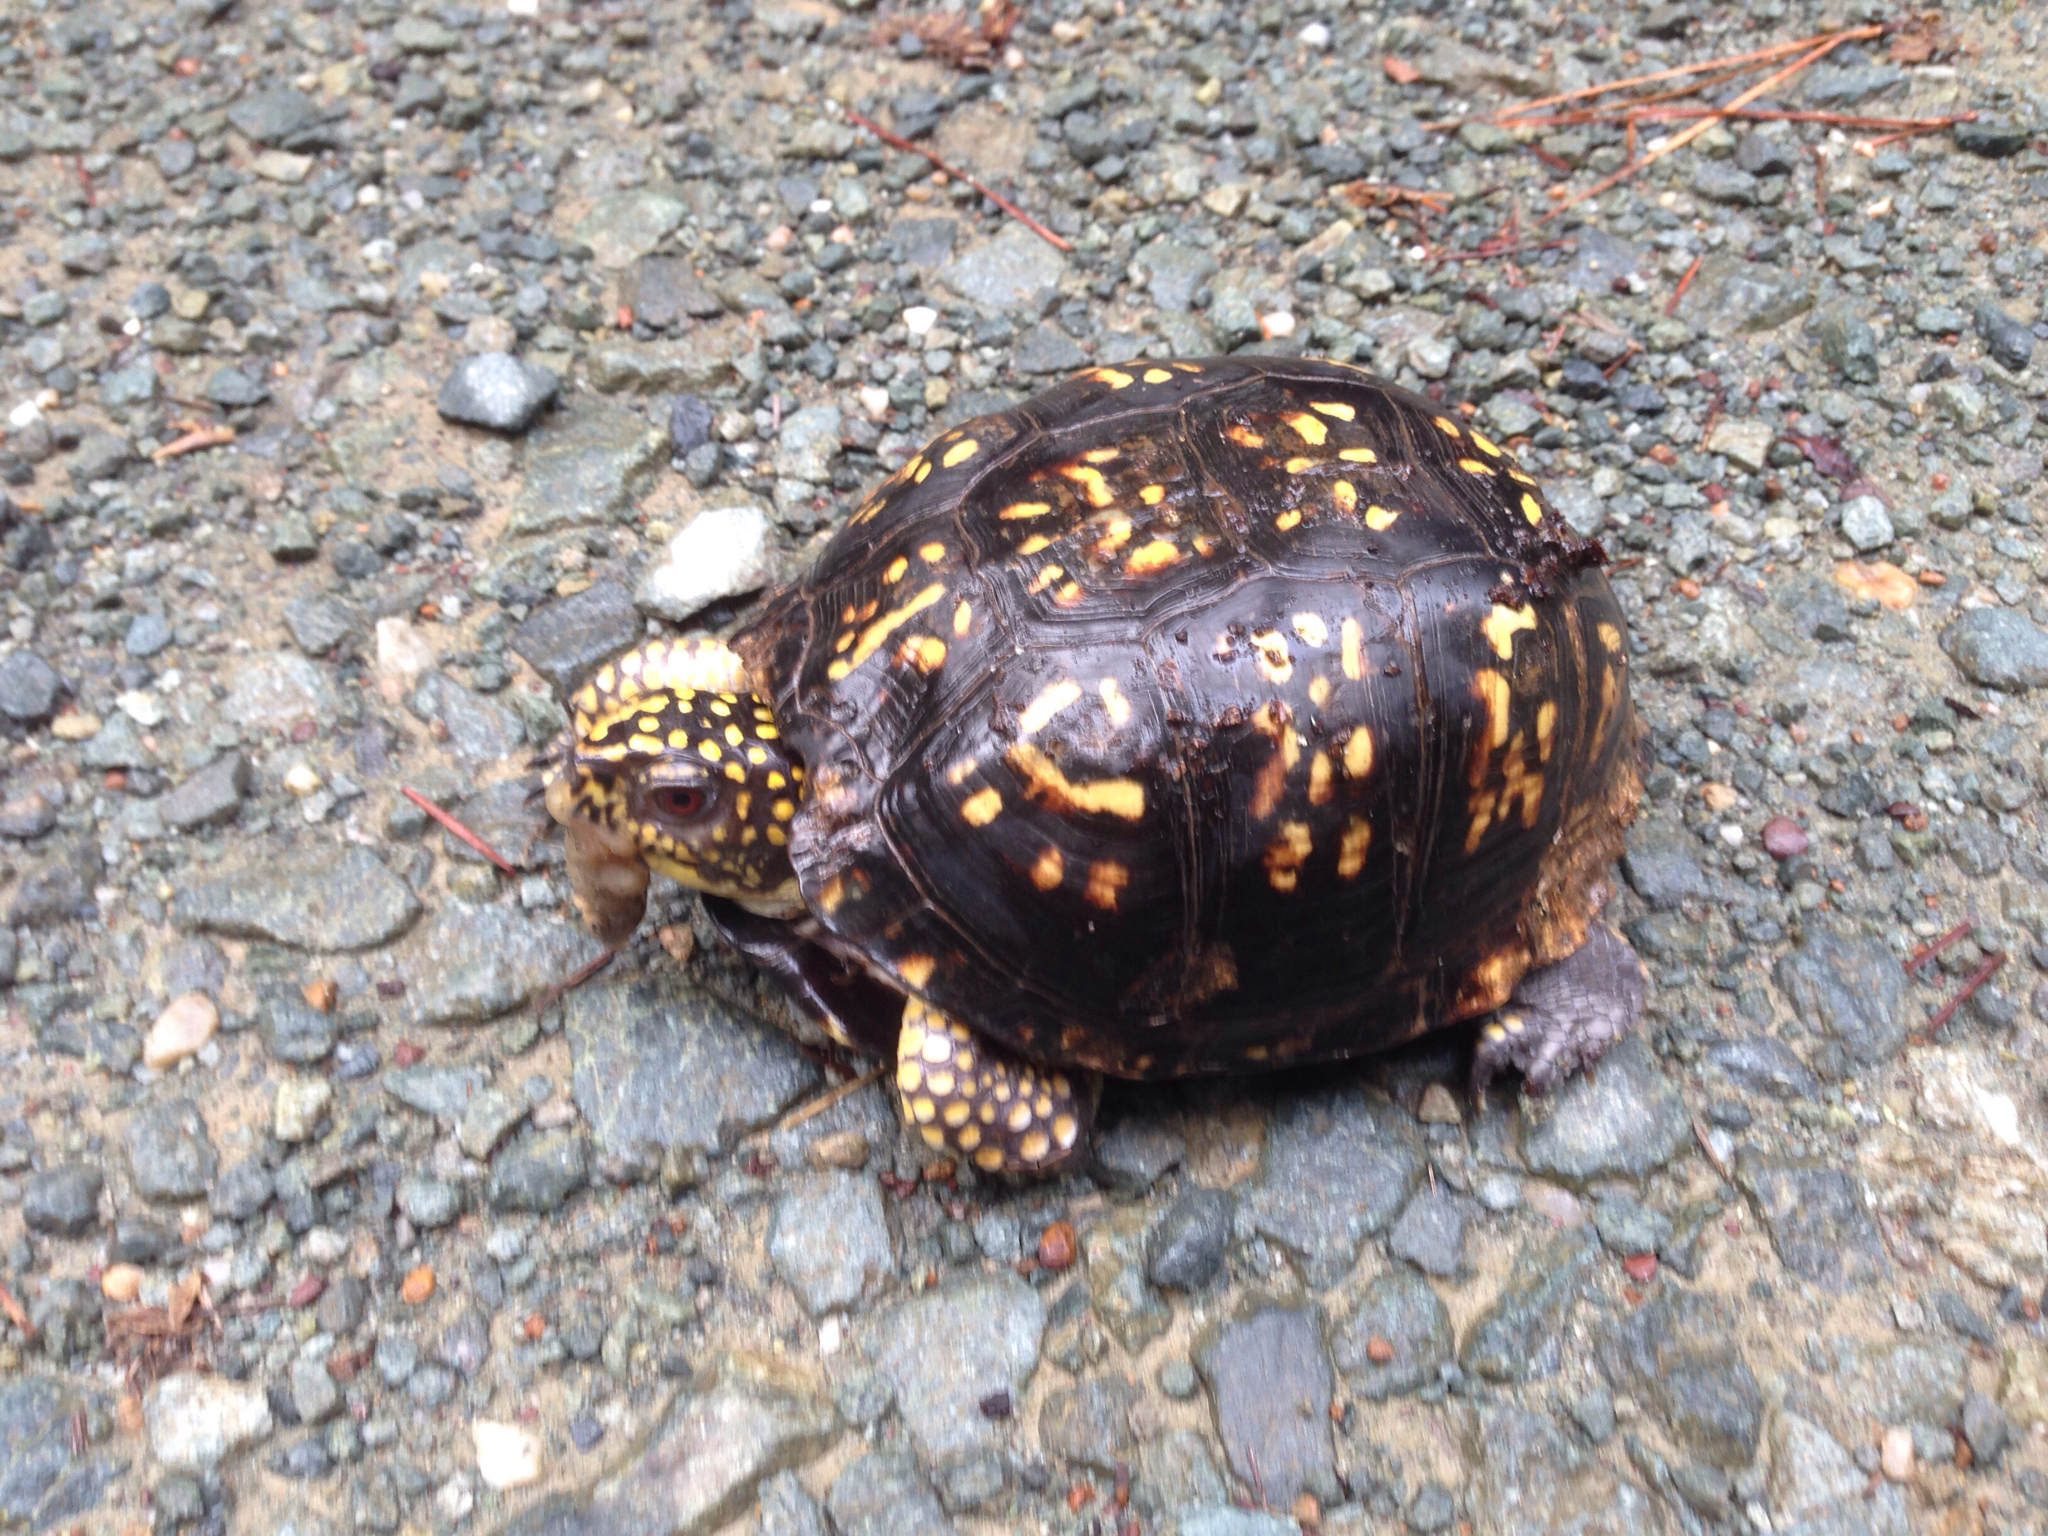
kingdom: Animalia
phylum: Chordata
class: Testudines
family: Emydidae
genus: Terrapene
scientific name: Terrapene carolina
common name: Common box turtle
